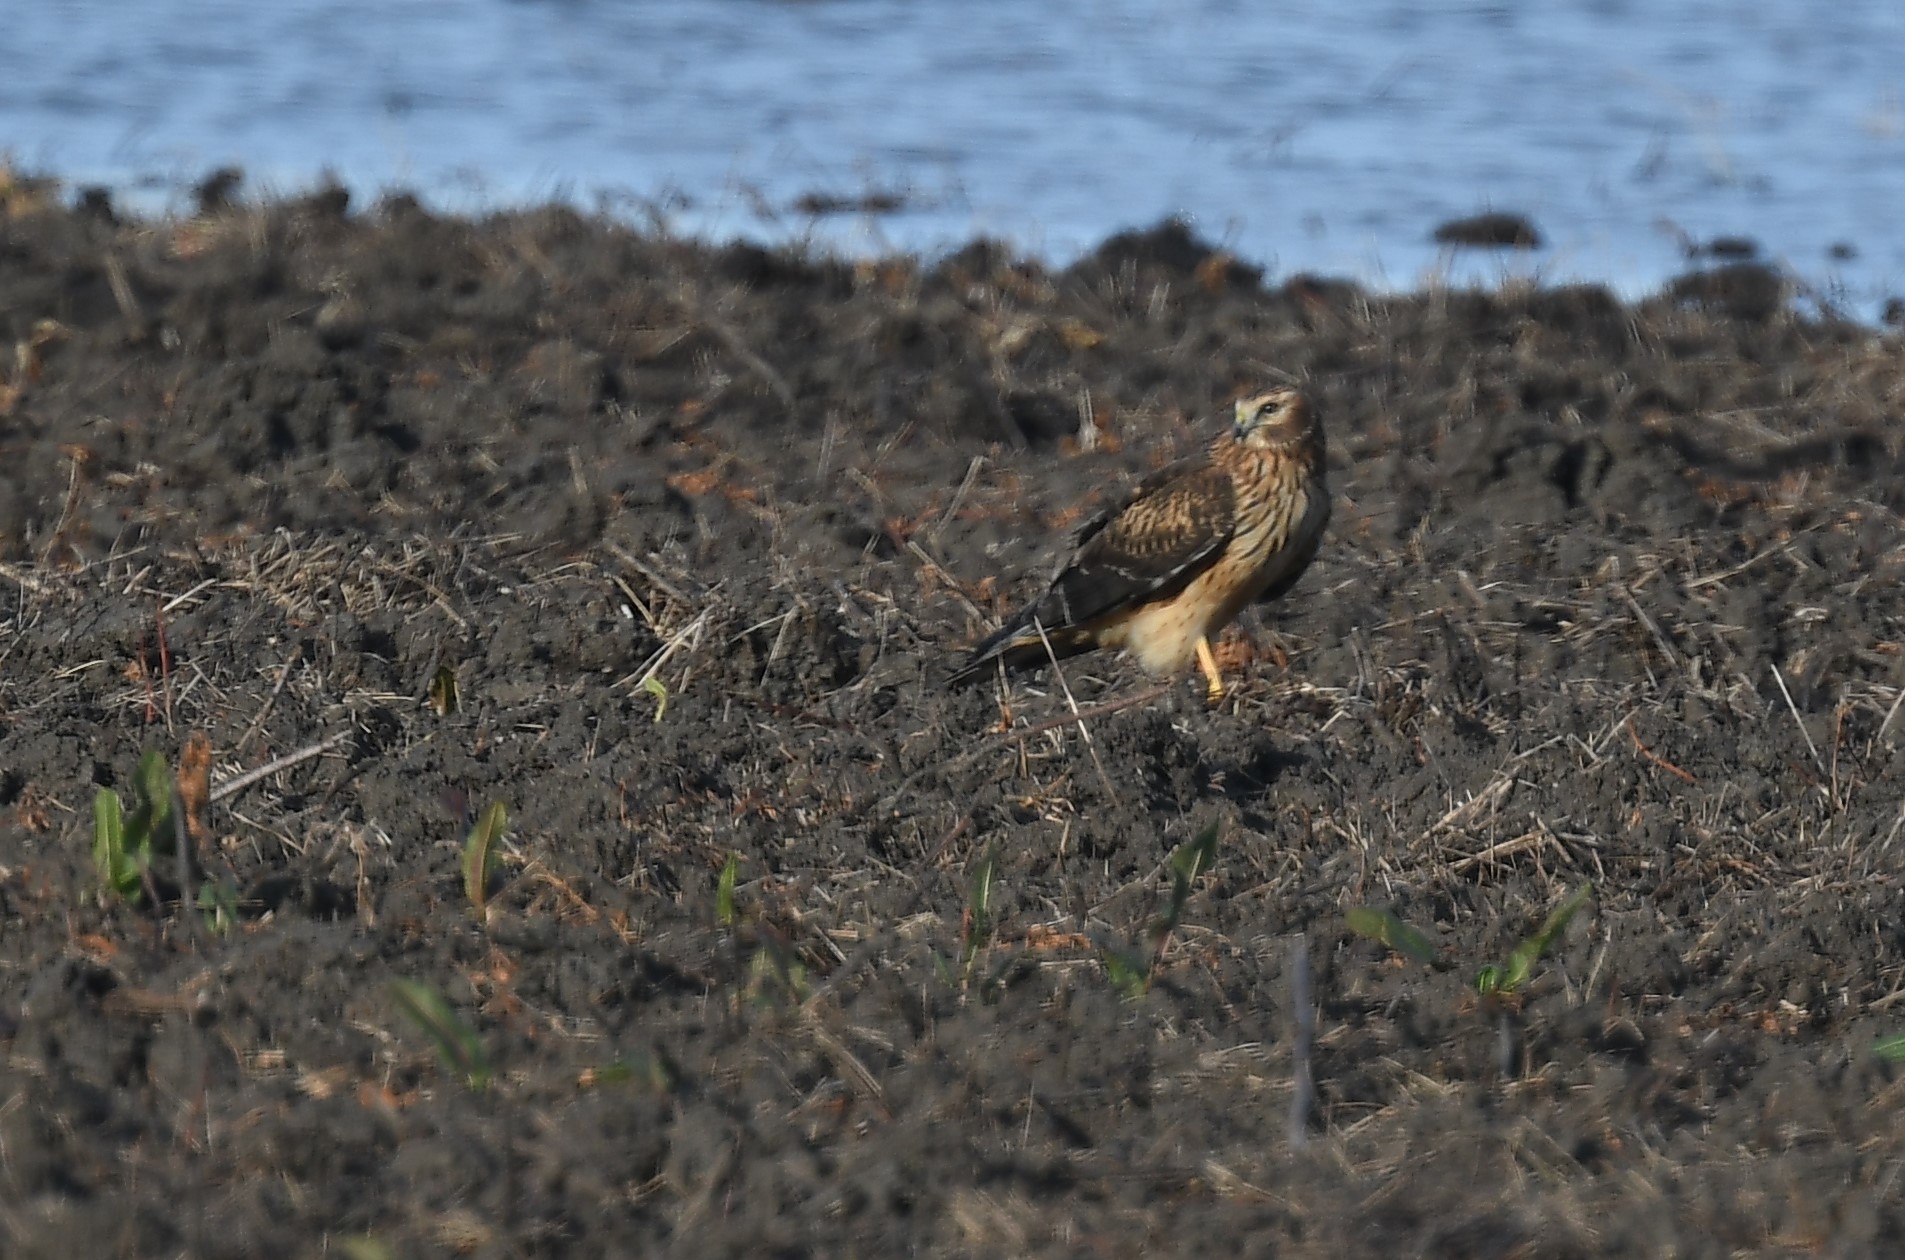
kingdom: Animalia
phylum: Chordata
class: Aves
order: Accipitriformes
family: Accipitridae
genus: Circus
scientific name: Circus cyaneus
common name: Hen harrier
